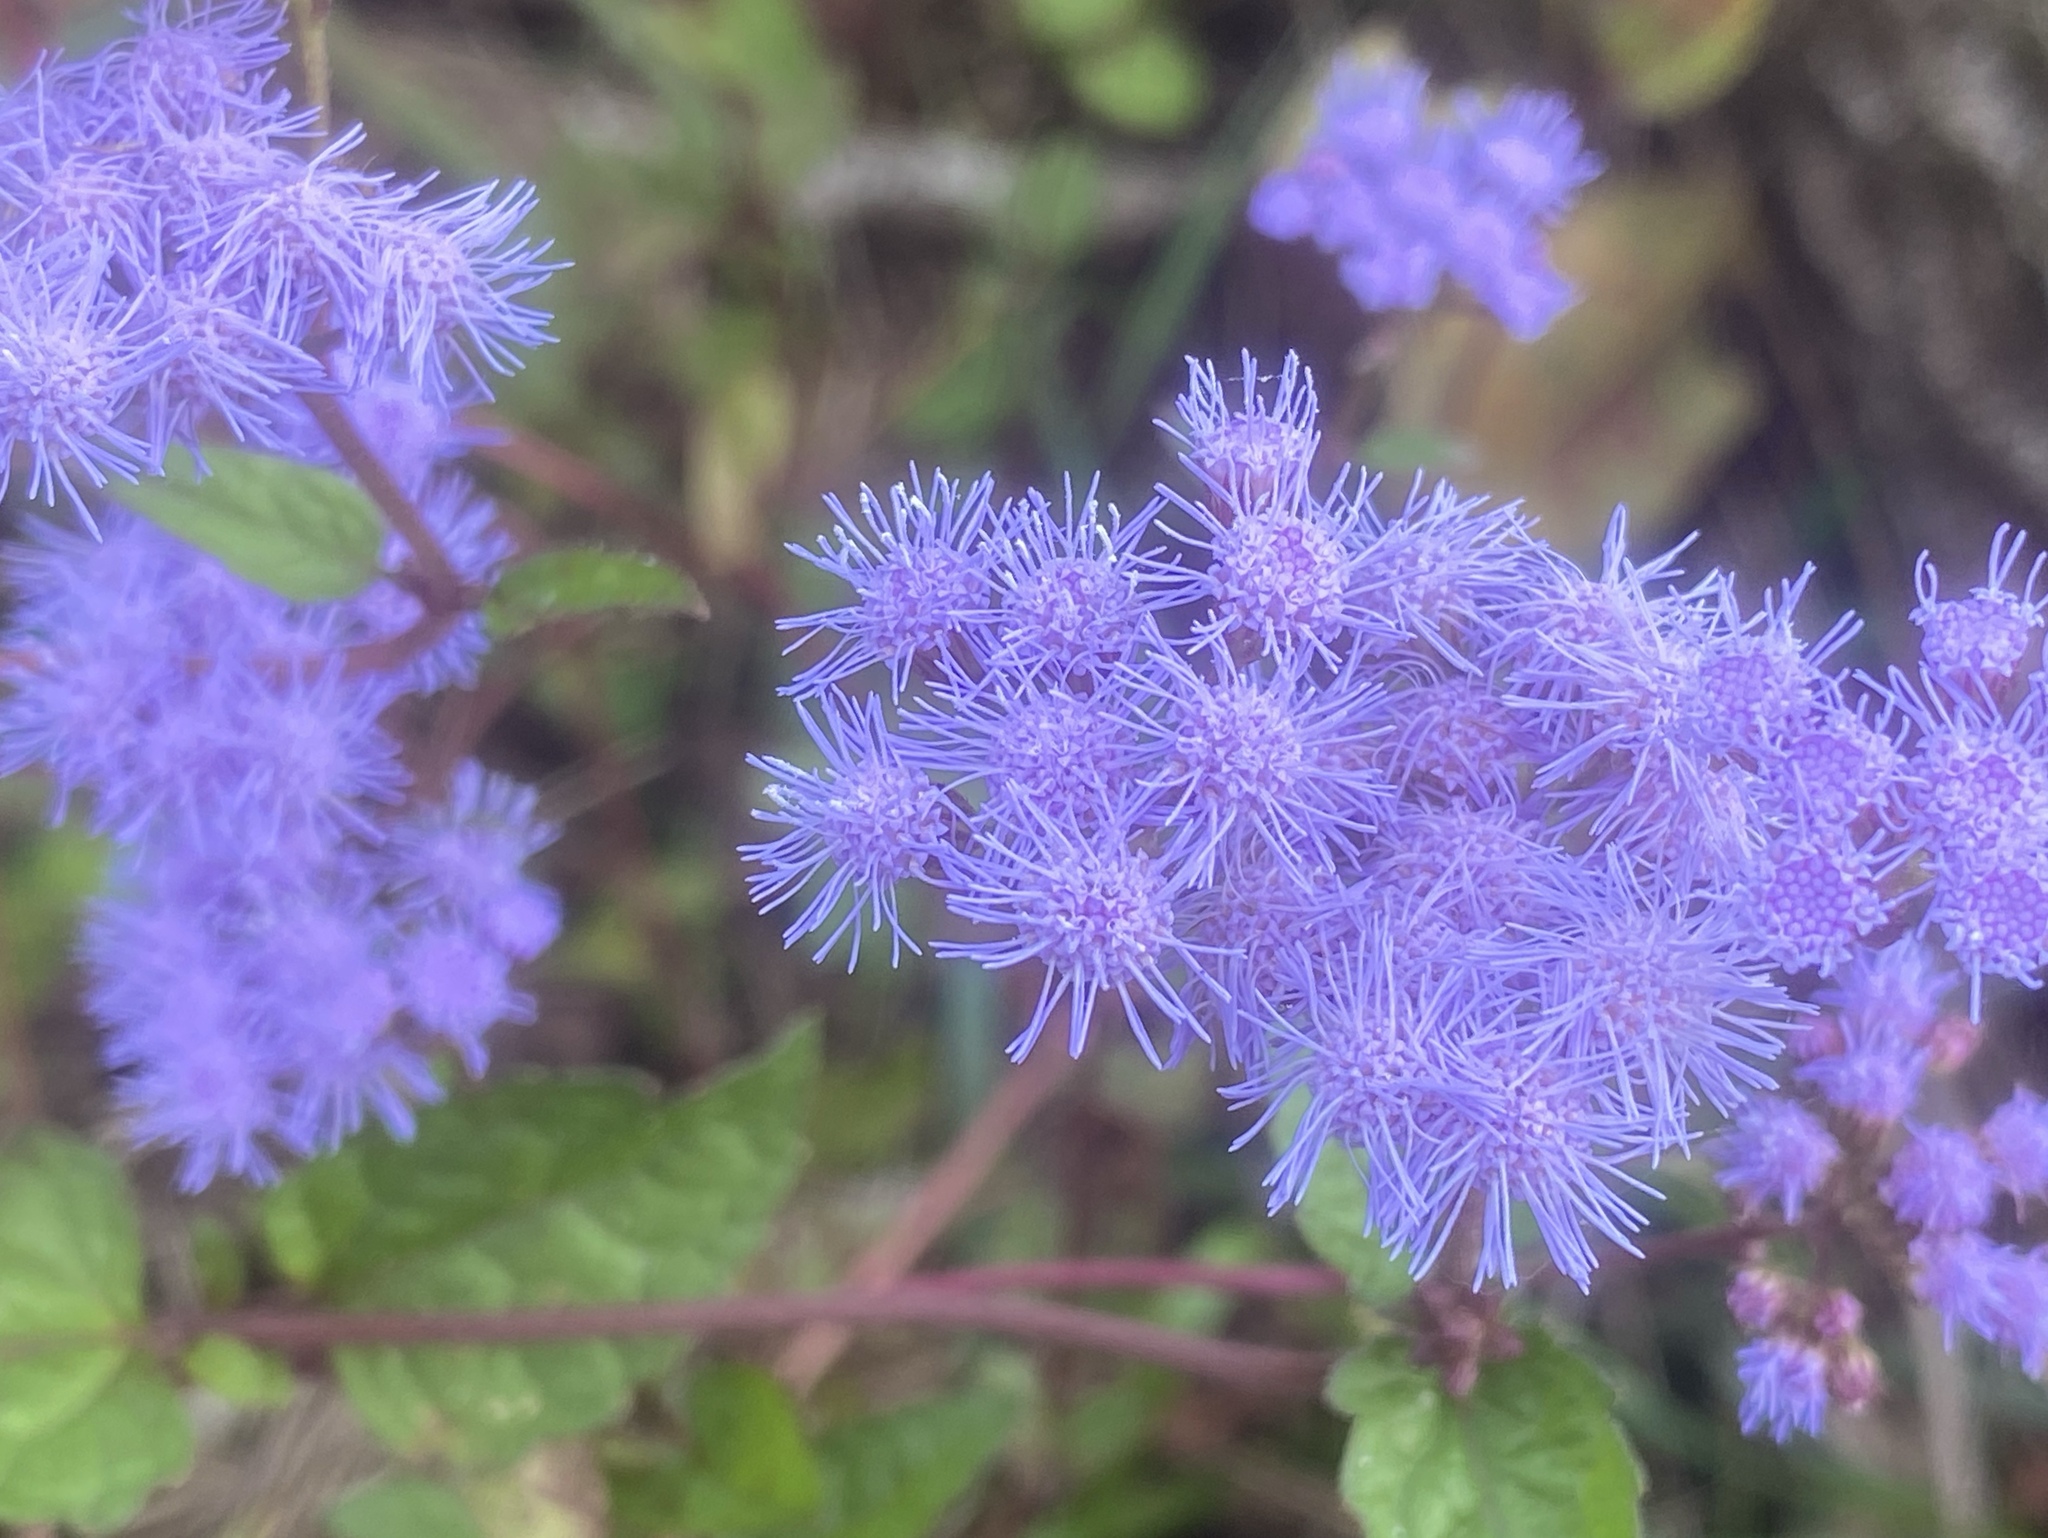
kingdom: Plantae
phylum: Tracheophyta
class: Magnoliopsida
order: Asterales
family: Asteraceae
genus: Conoclinium
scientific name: Conoclinium coelestinum
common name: Blue mistflower
